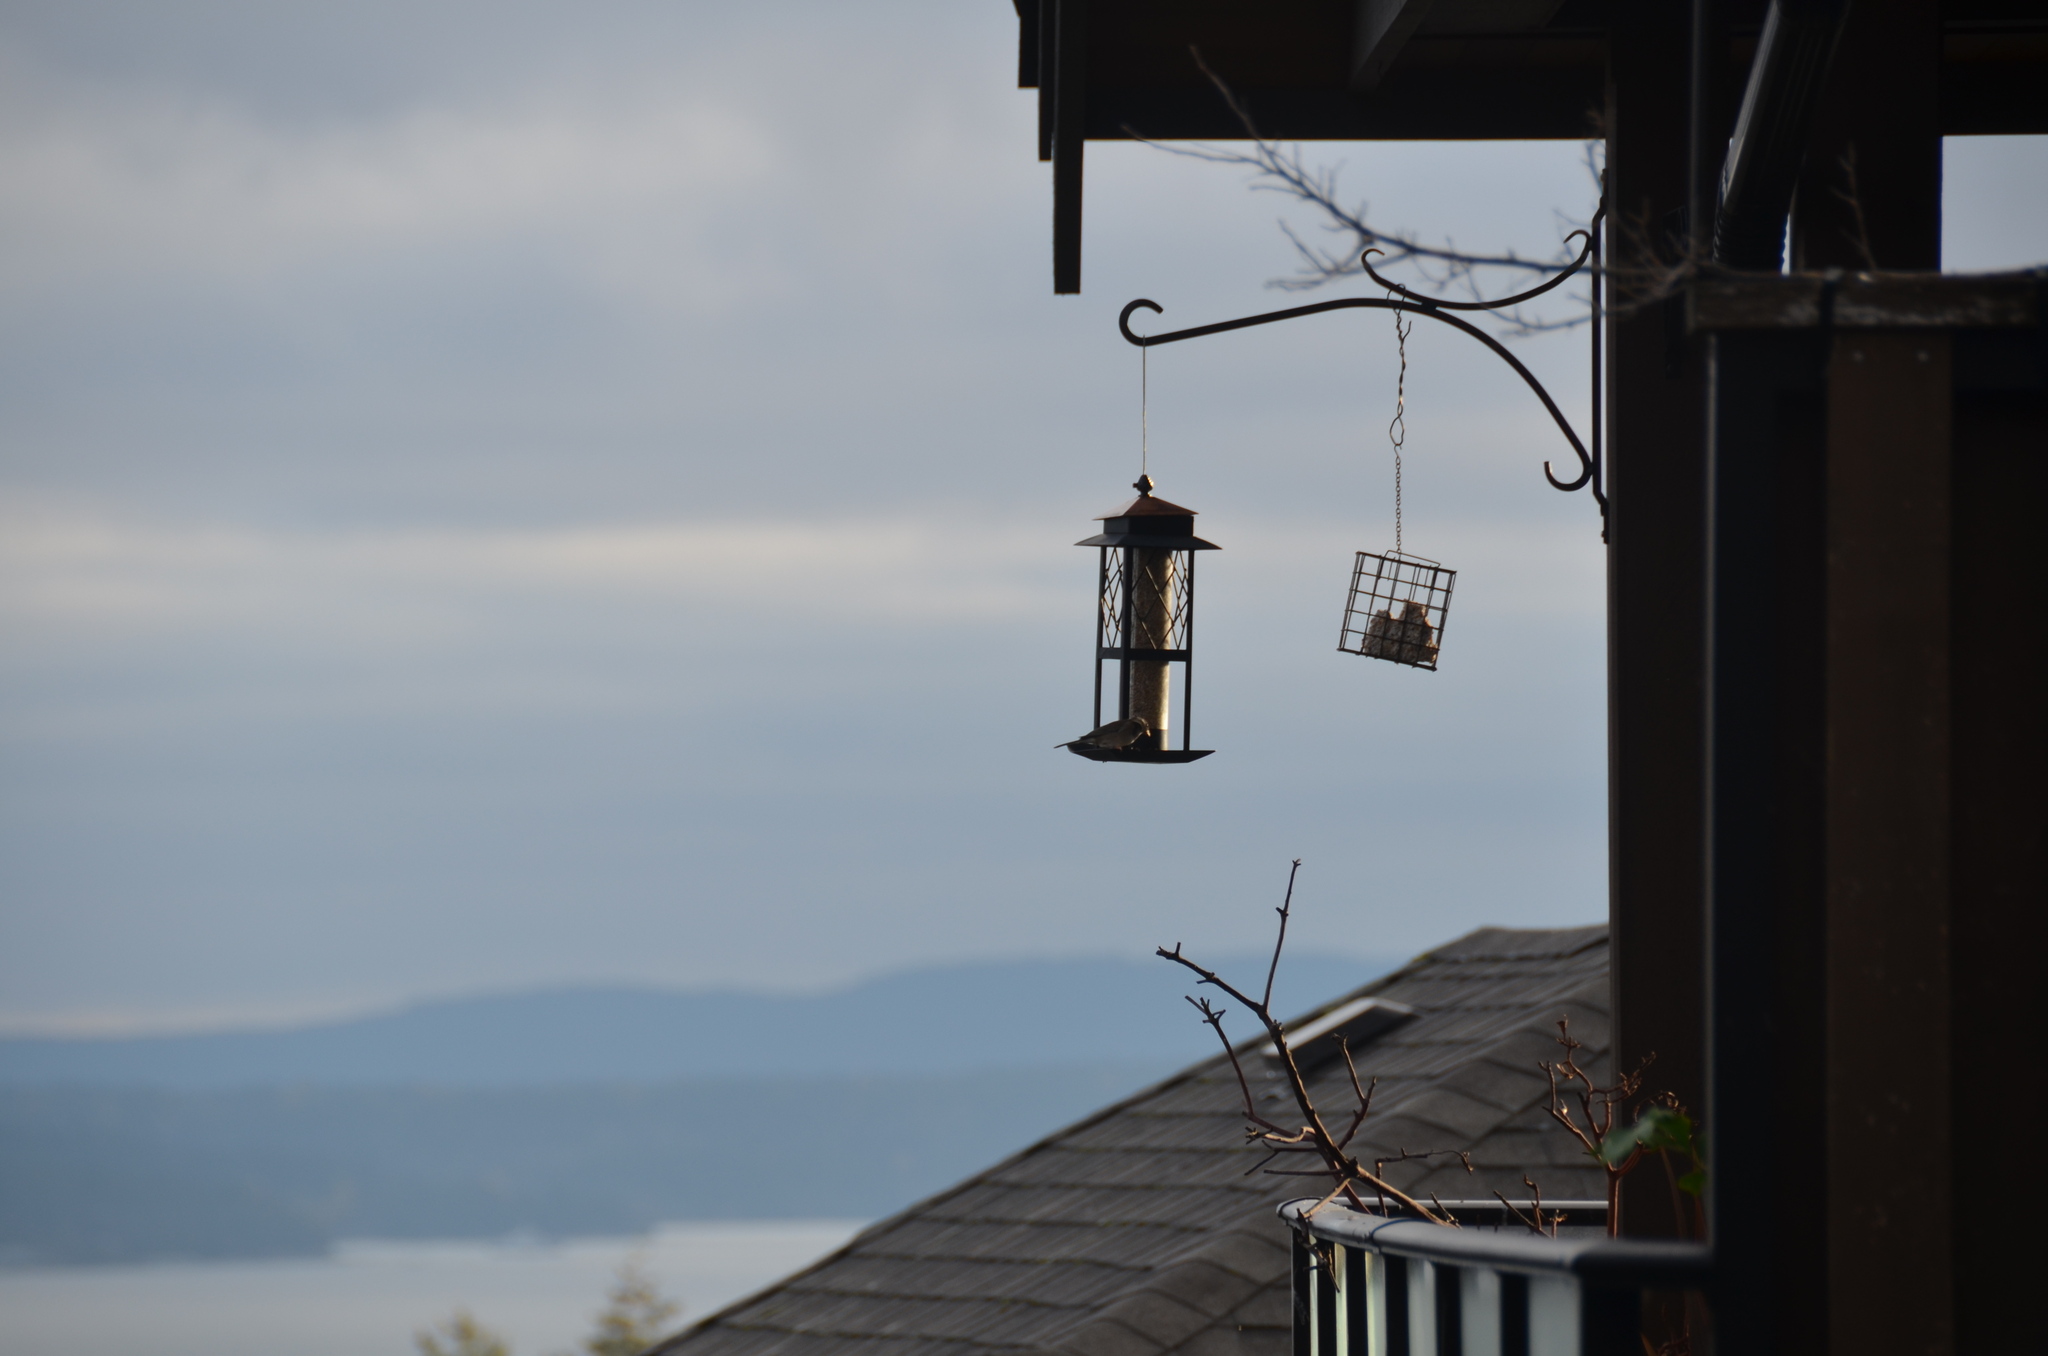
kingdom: Animalia
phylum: Chordata
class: Aves
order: Passeriformes
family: Passerellidae
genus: Junco
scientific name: Junco hyemalis
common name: Dark-eyed junco
